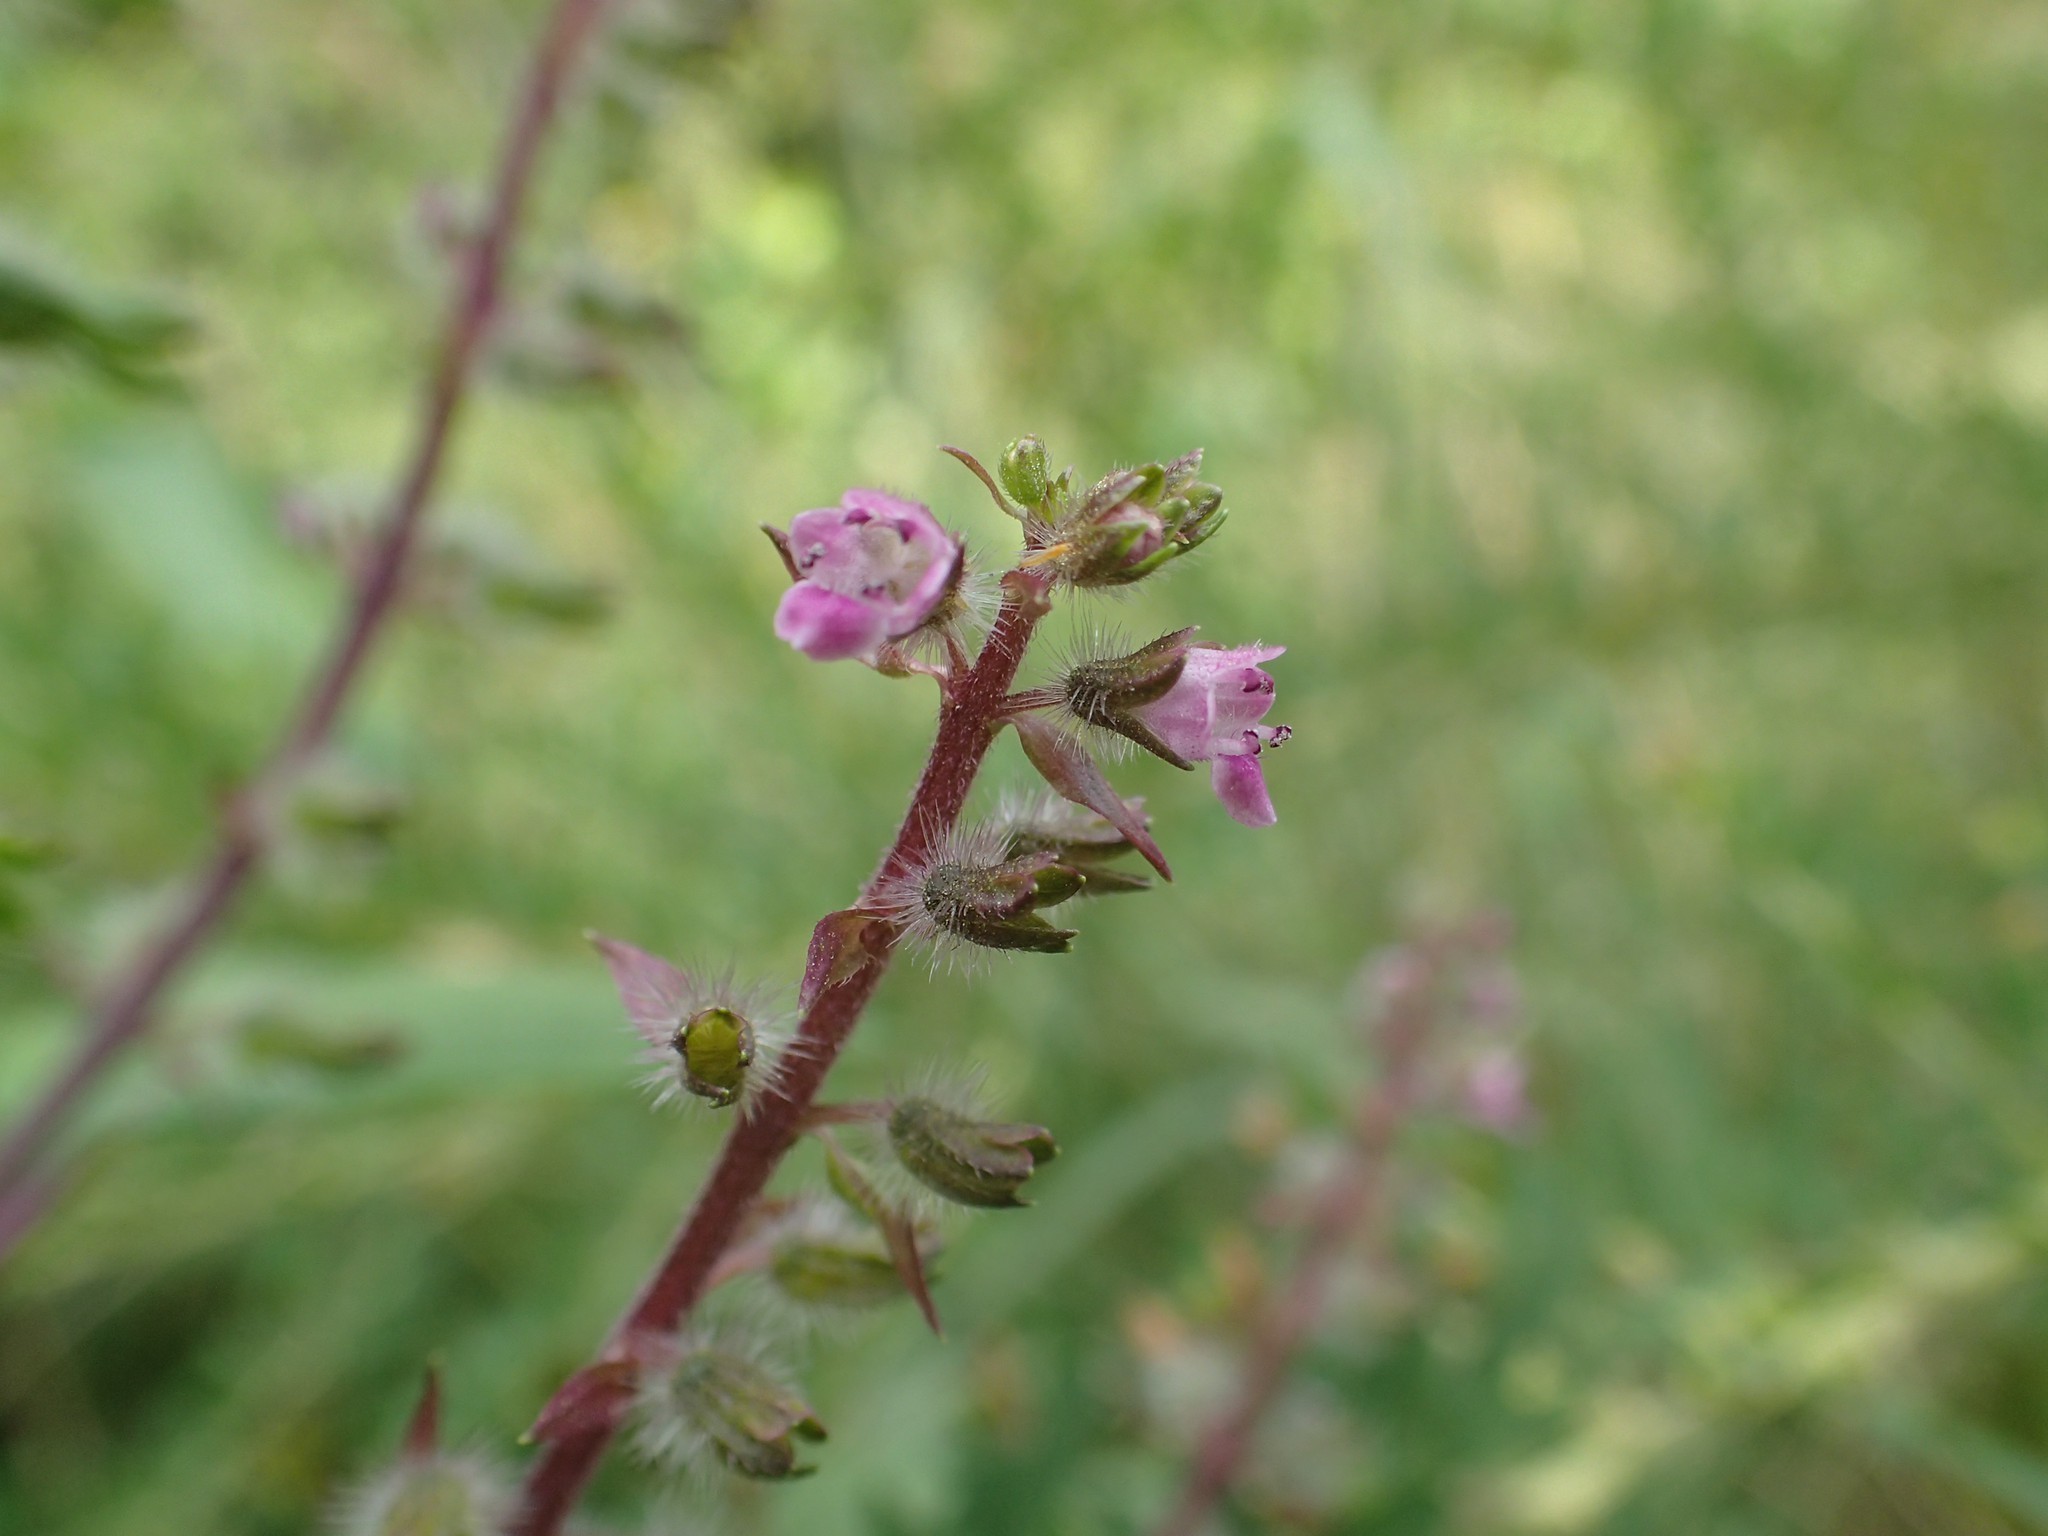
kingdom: Plantae
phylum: Tracheophyta
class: Magnoliopsida
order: Lamiales
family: Lamiaceae
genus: Perilla
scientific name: Perilla frutescens
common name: Perilla
